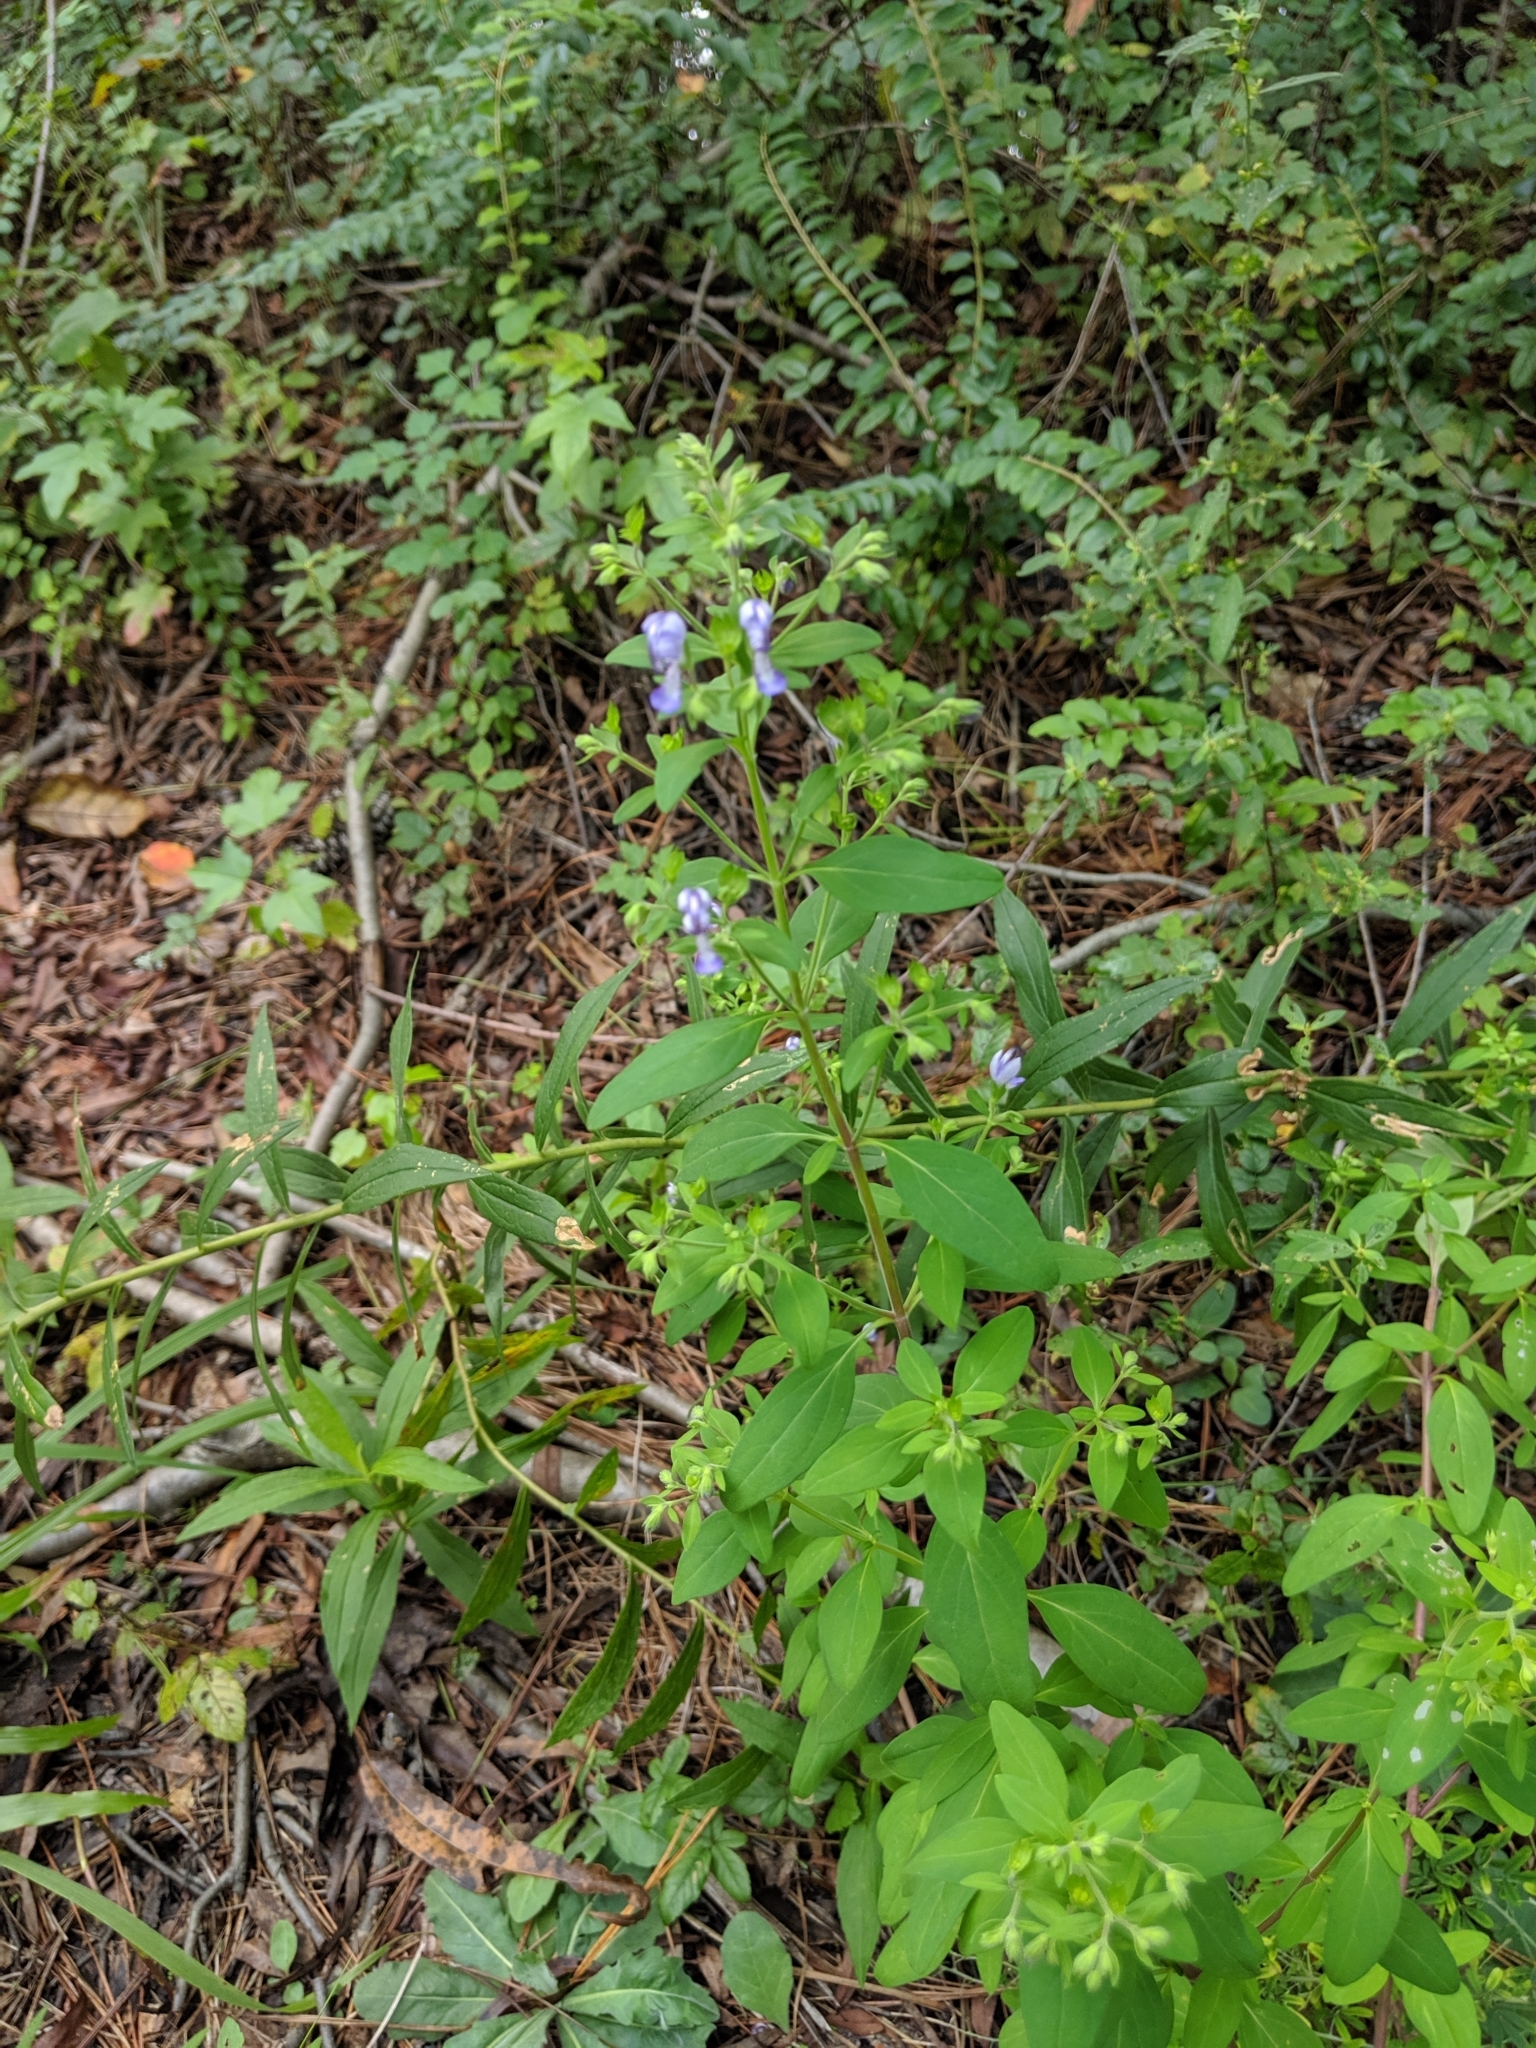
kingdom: Plantae
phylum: Tracheophyta
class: Magnoliopsida
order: Lamiales
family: Lamiaceae
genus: Trichostema
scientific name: Trichostema dichotomum
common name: Bastard pennyroyal
